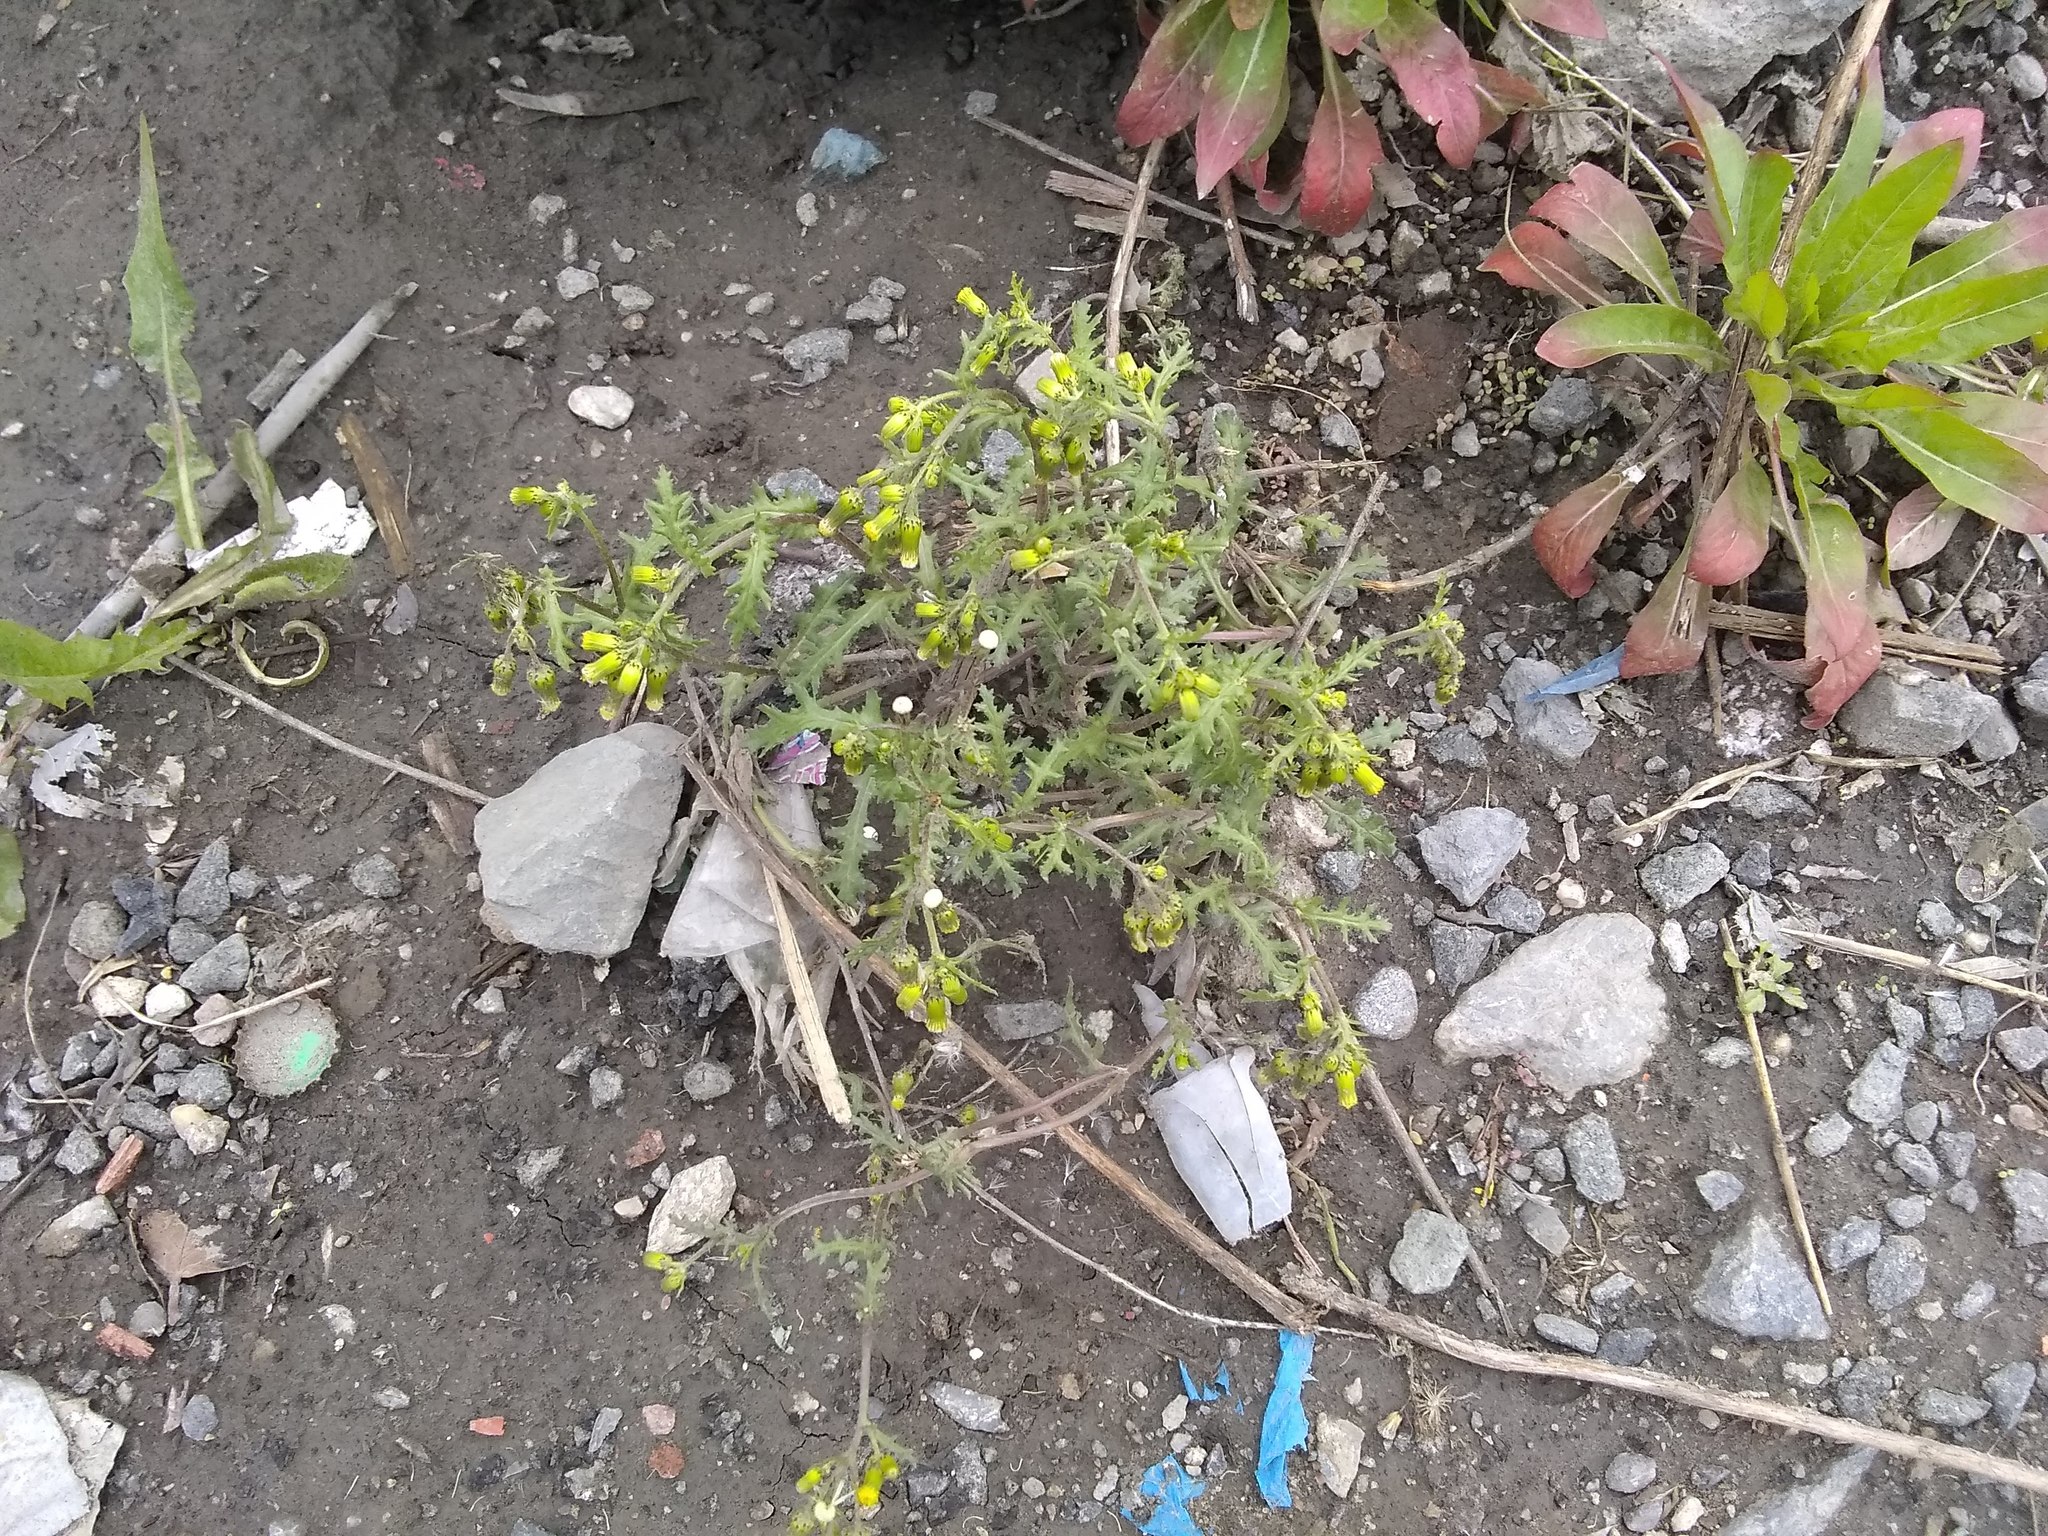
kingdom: Plantae
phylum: Tracheophyta
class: Magnoliopsida
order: Asterales
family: Asteraceae
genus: Senecio
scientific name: Senecio vulgaris
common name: Old-man-in-the-spring
